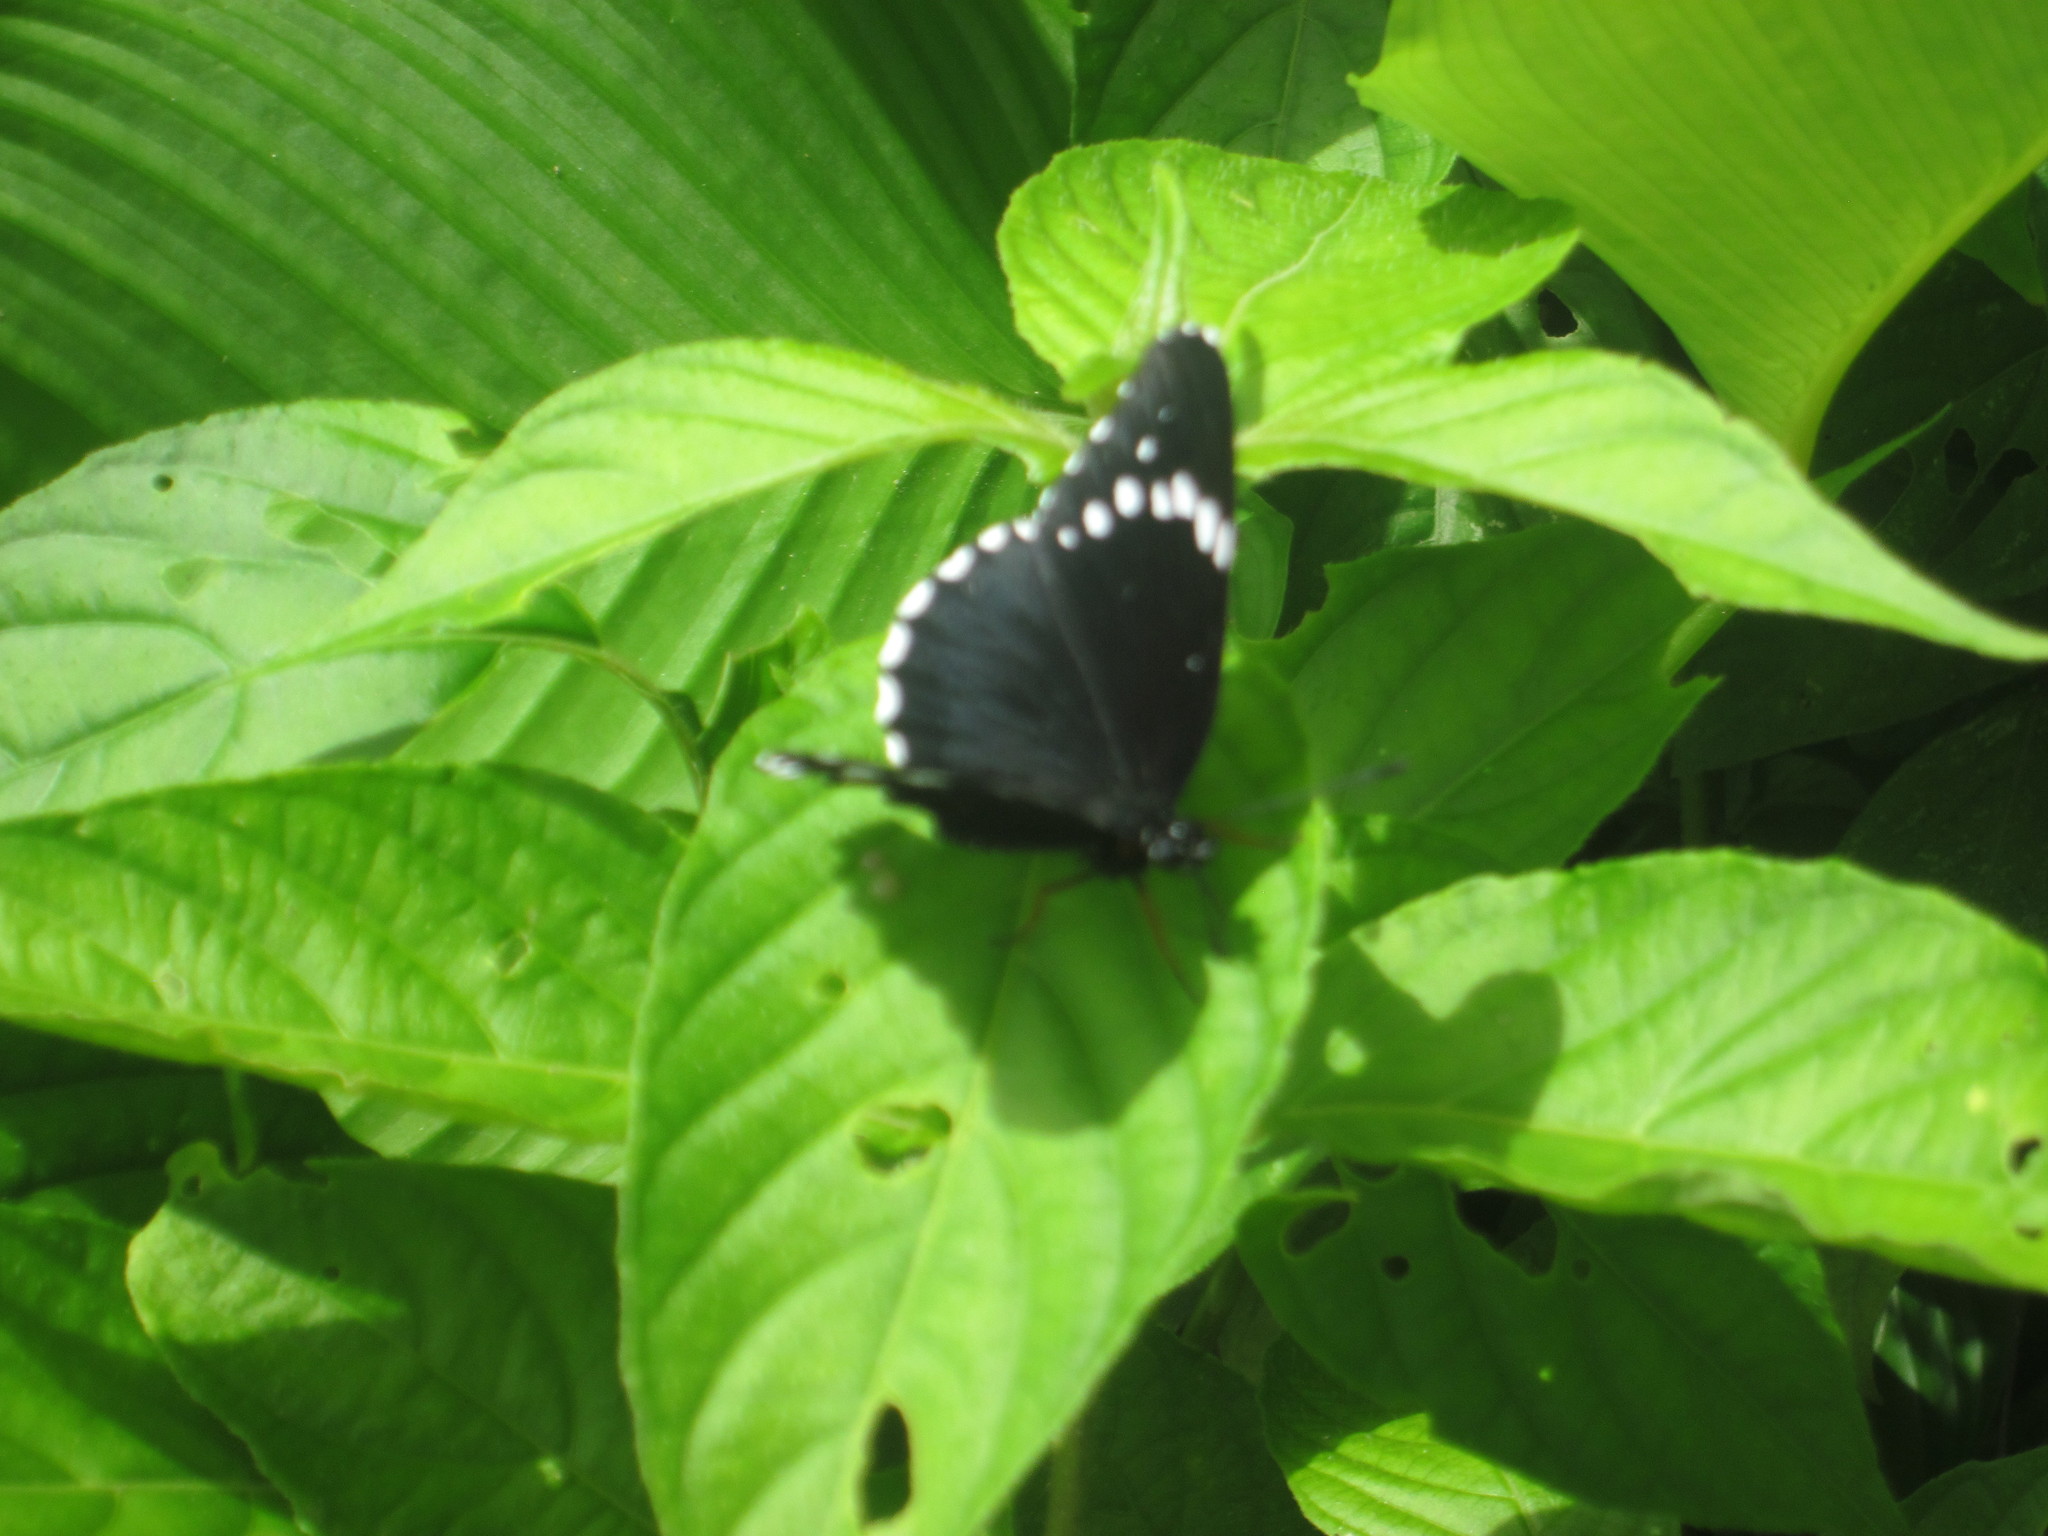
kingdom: Animalia
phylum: Arthropoda
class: Insecta
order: Lepidoptera
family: Nymphalidae
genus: Chlosyne
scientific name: Chlosyne hippodrome
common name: Simple patch
